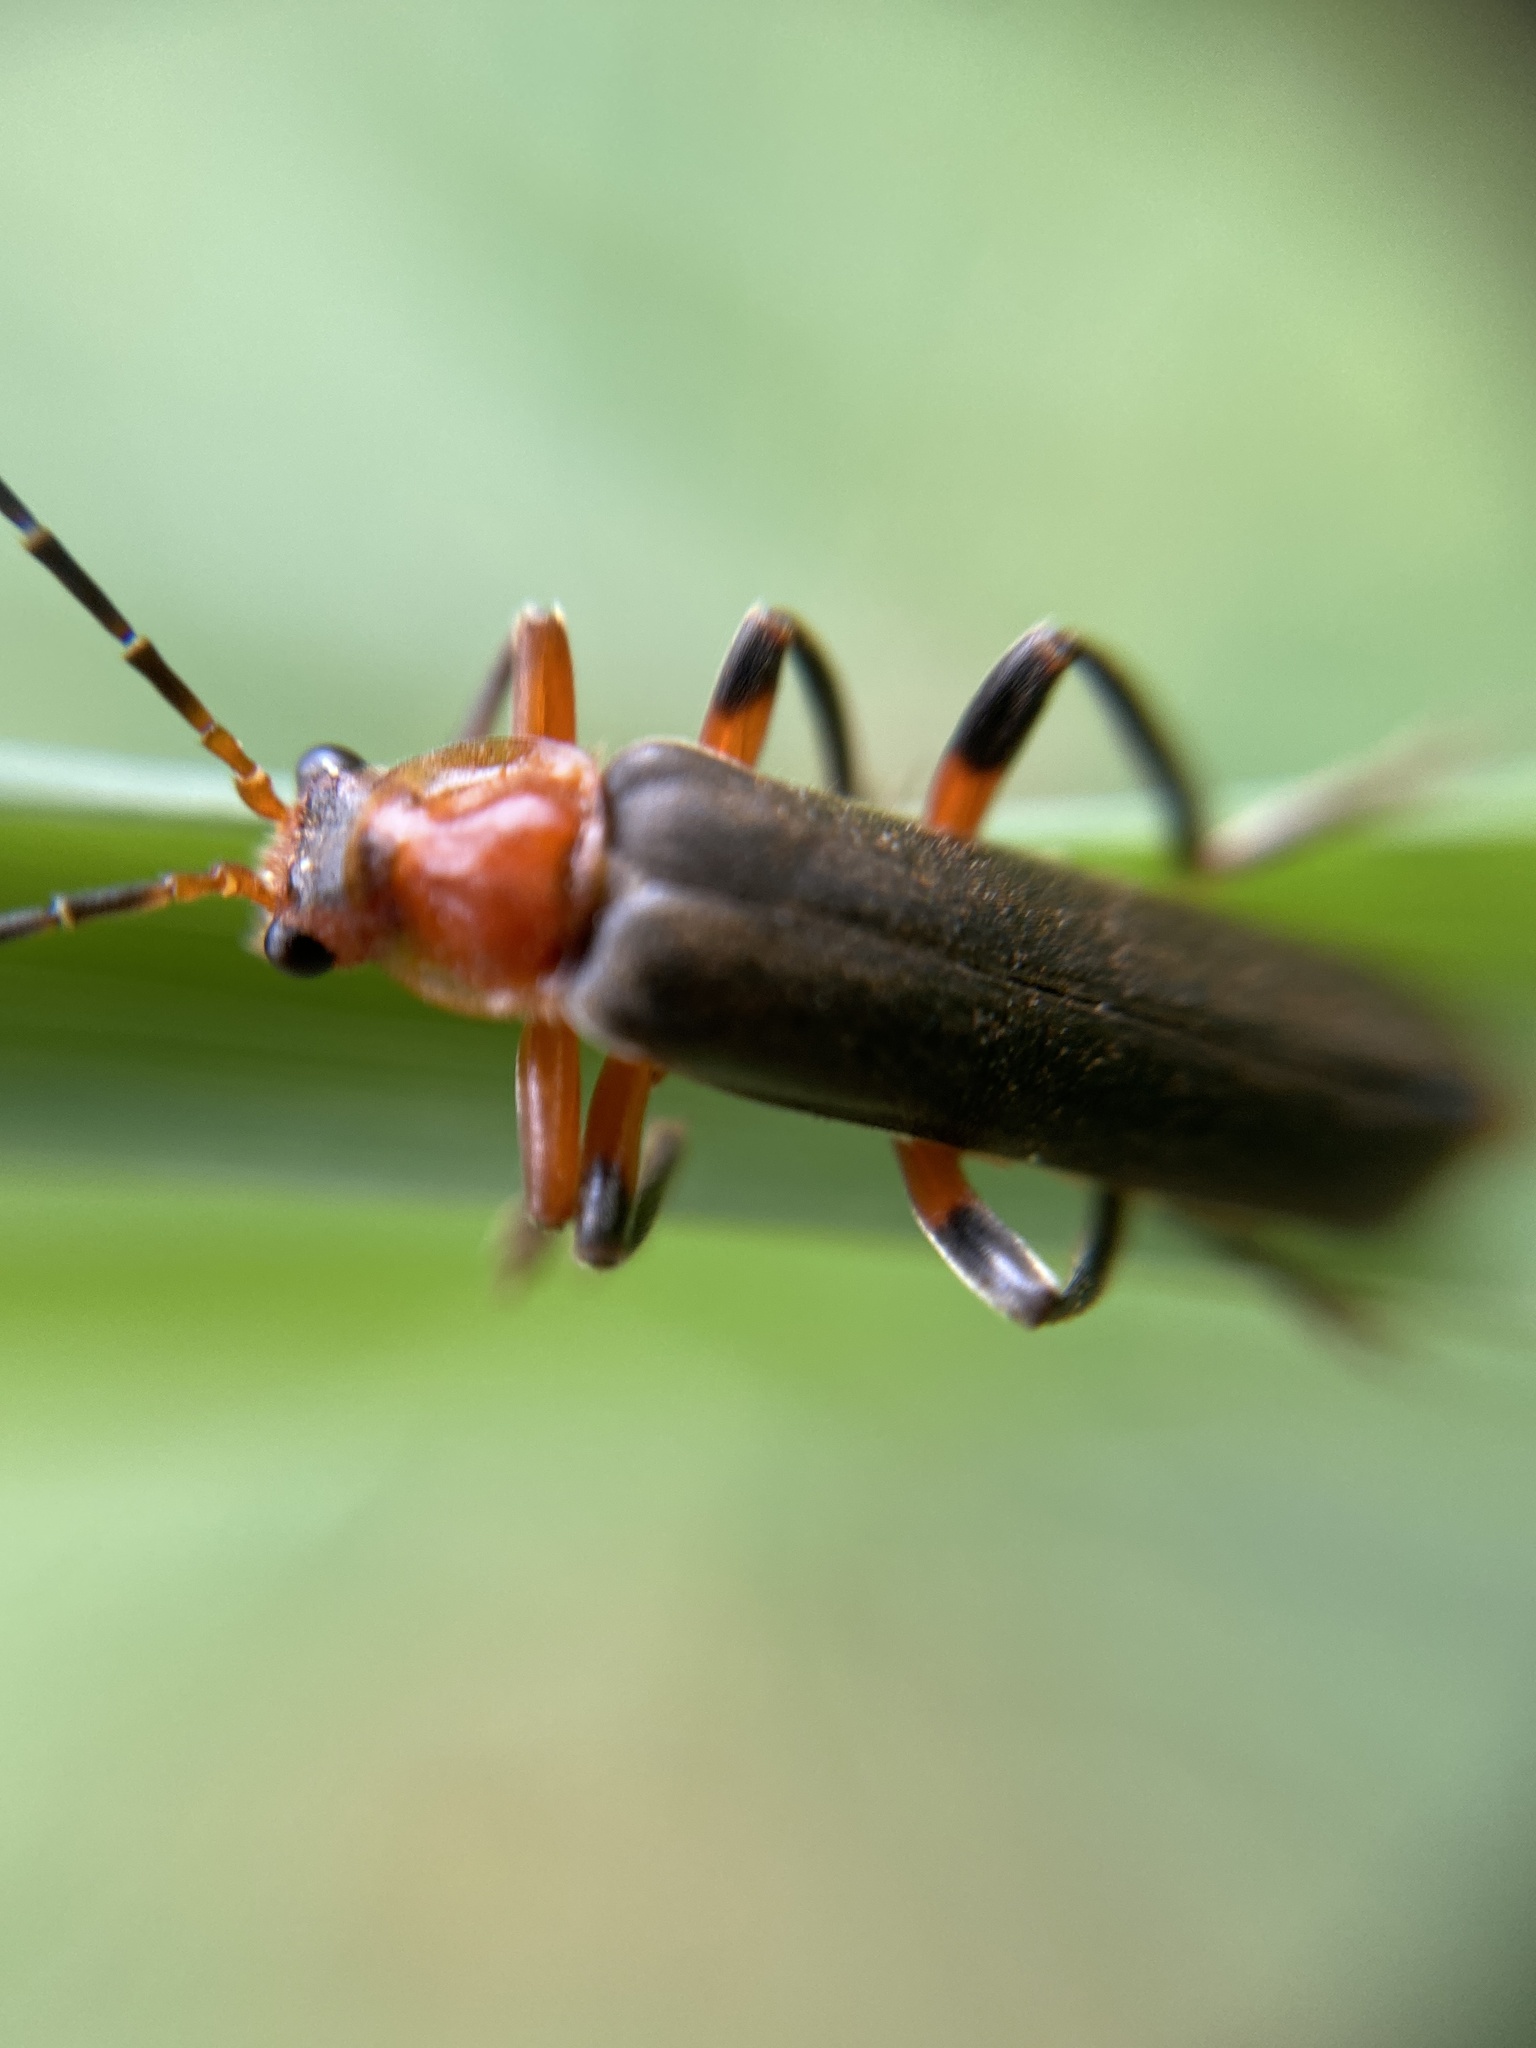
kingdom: Animalia
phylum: Arthropoda
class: Insecta
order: Coleoptera
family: Cantharidae
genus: Cantharis
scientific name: Cantharis livida
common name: Livid soldier beetle
